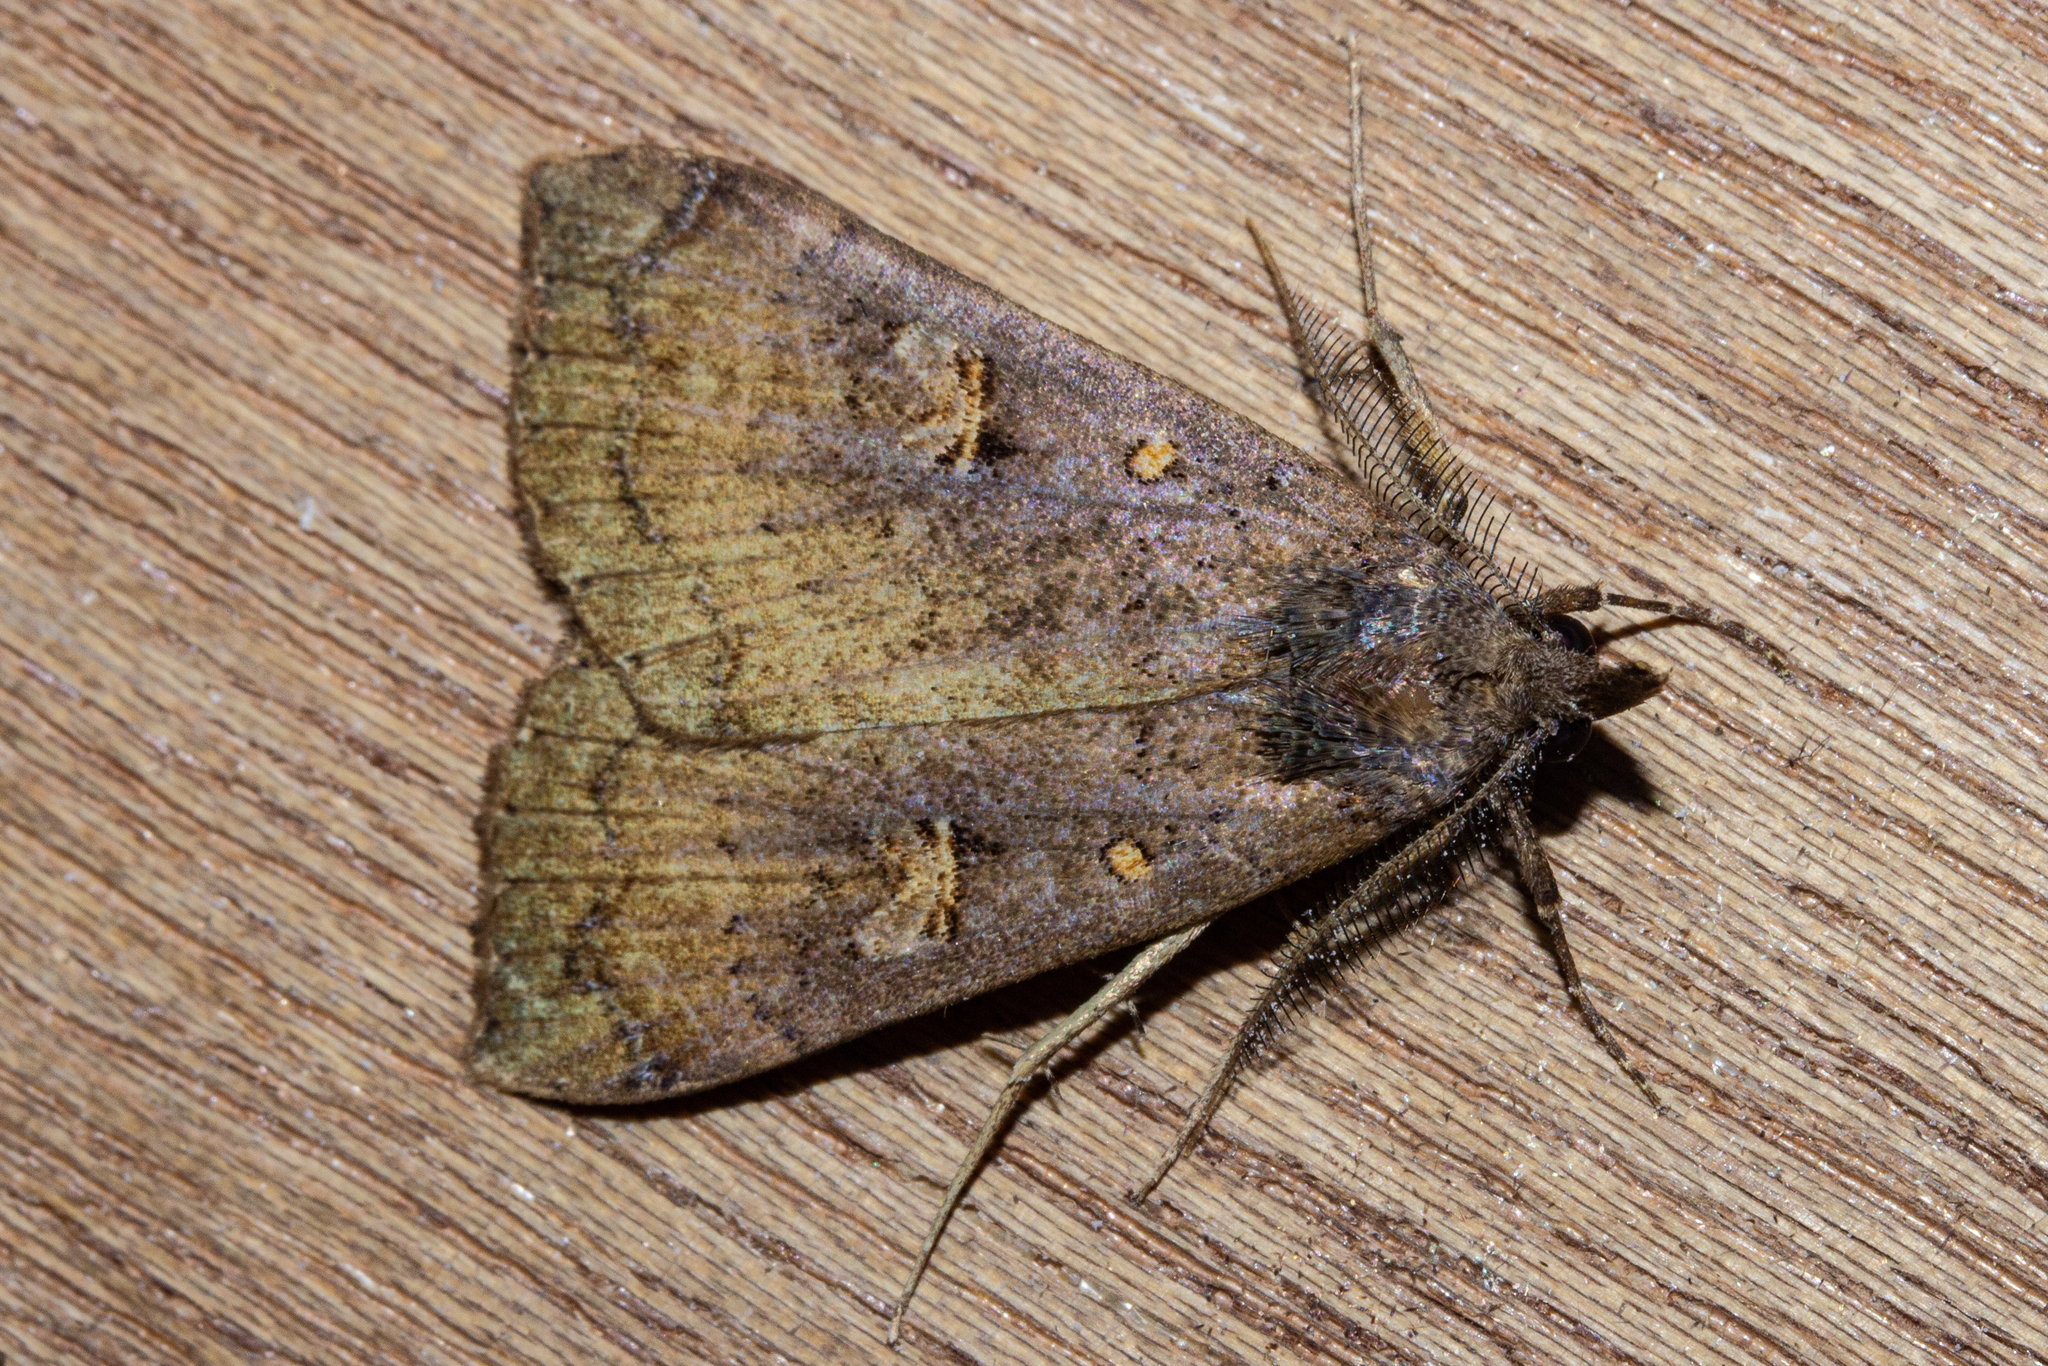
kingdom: Animalia
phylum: Arthropoda
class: Insecta
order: Lepidoptera
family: Erebidae
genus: Rhapsa
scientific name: Rhapsa scotosialis
